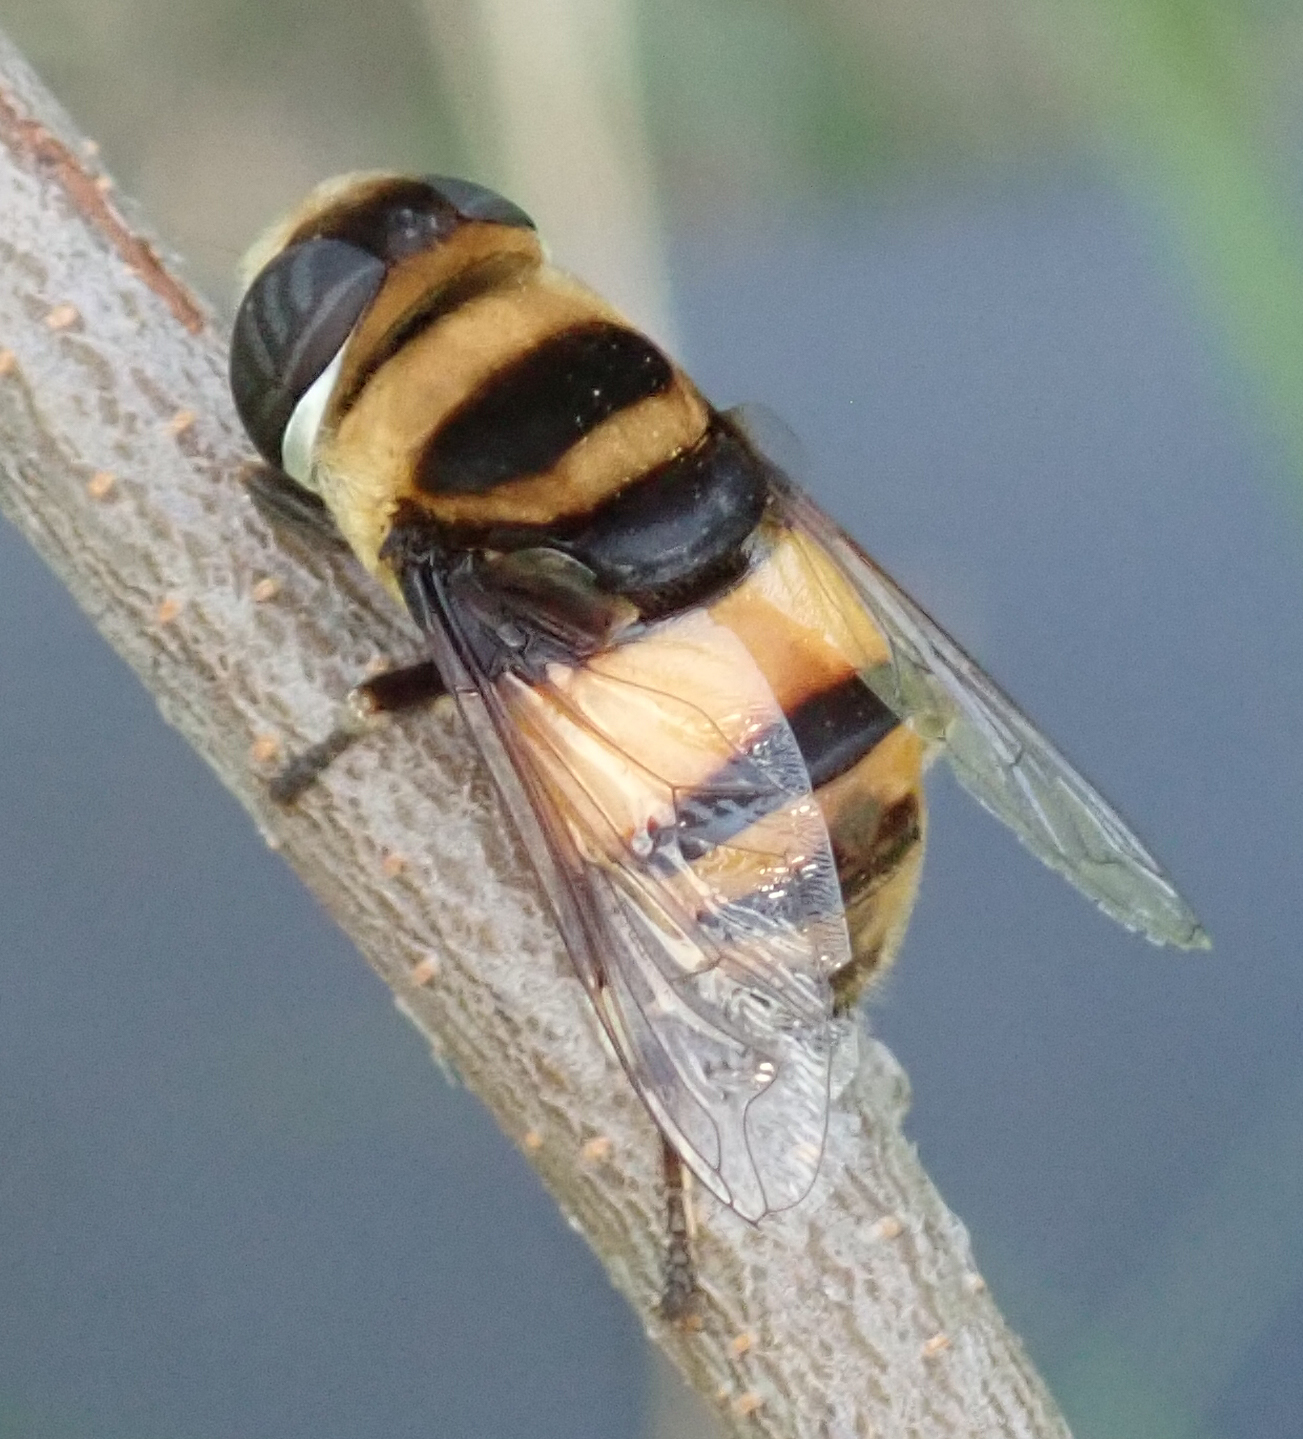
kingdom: Animalia
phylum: Arthropoda
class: Insecta
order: Diptera
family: Syrphidae
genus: Phytomia
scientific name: Phytomia curta
